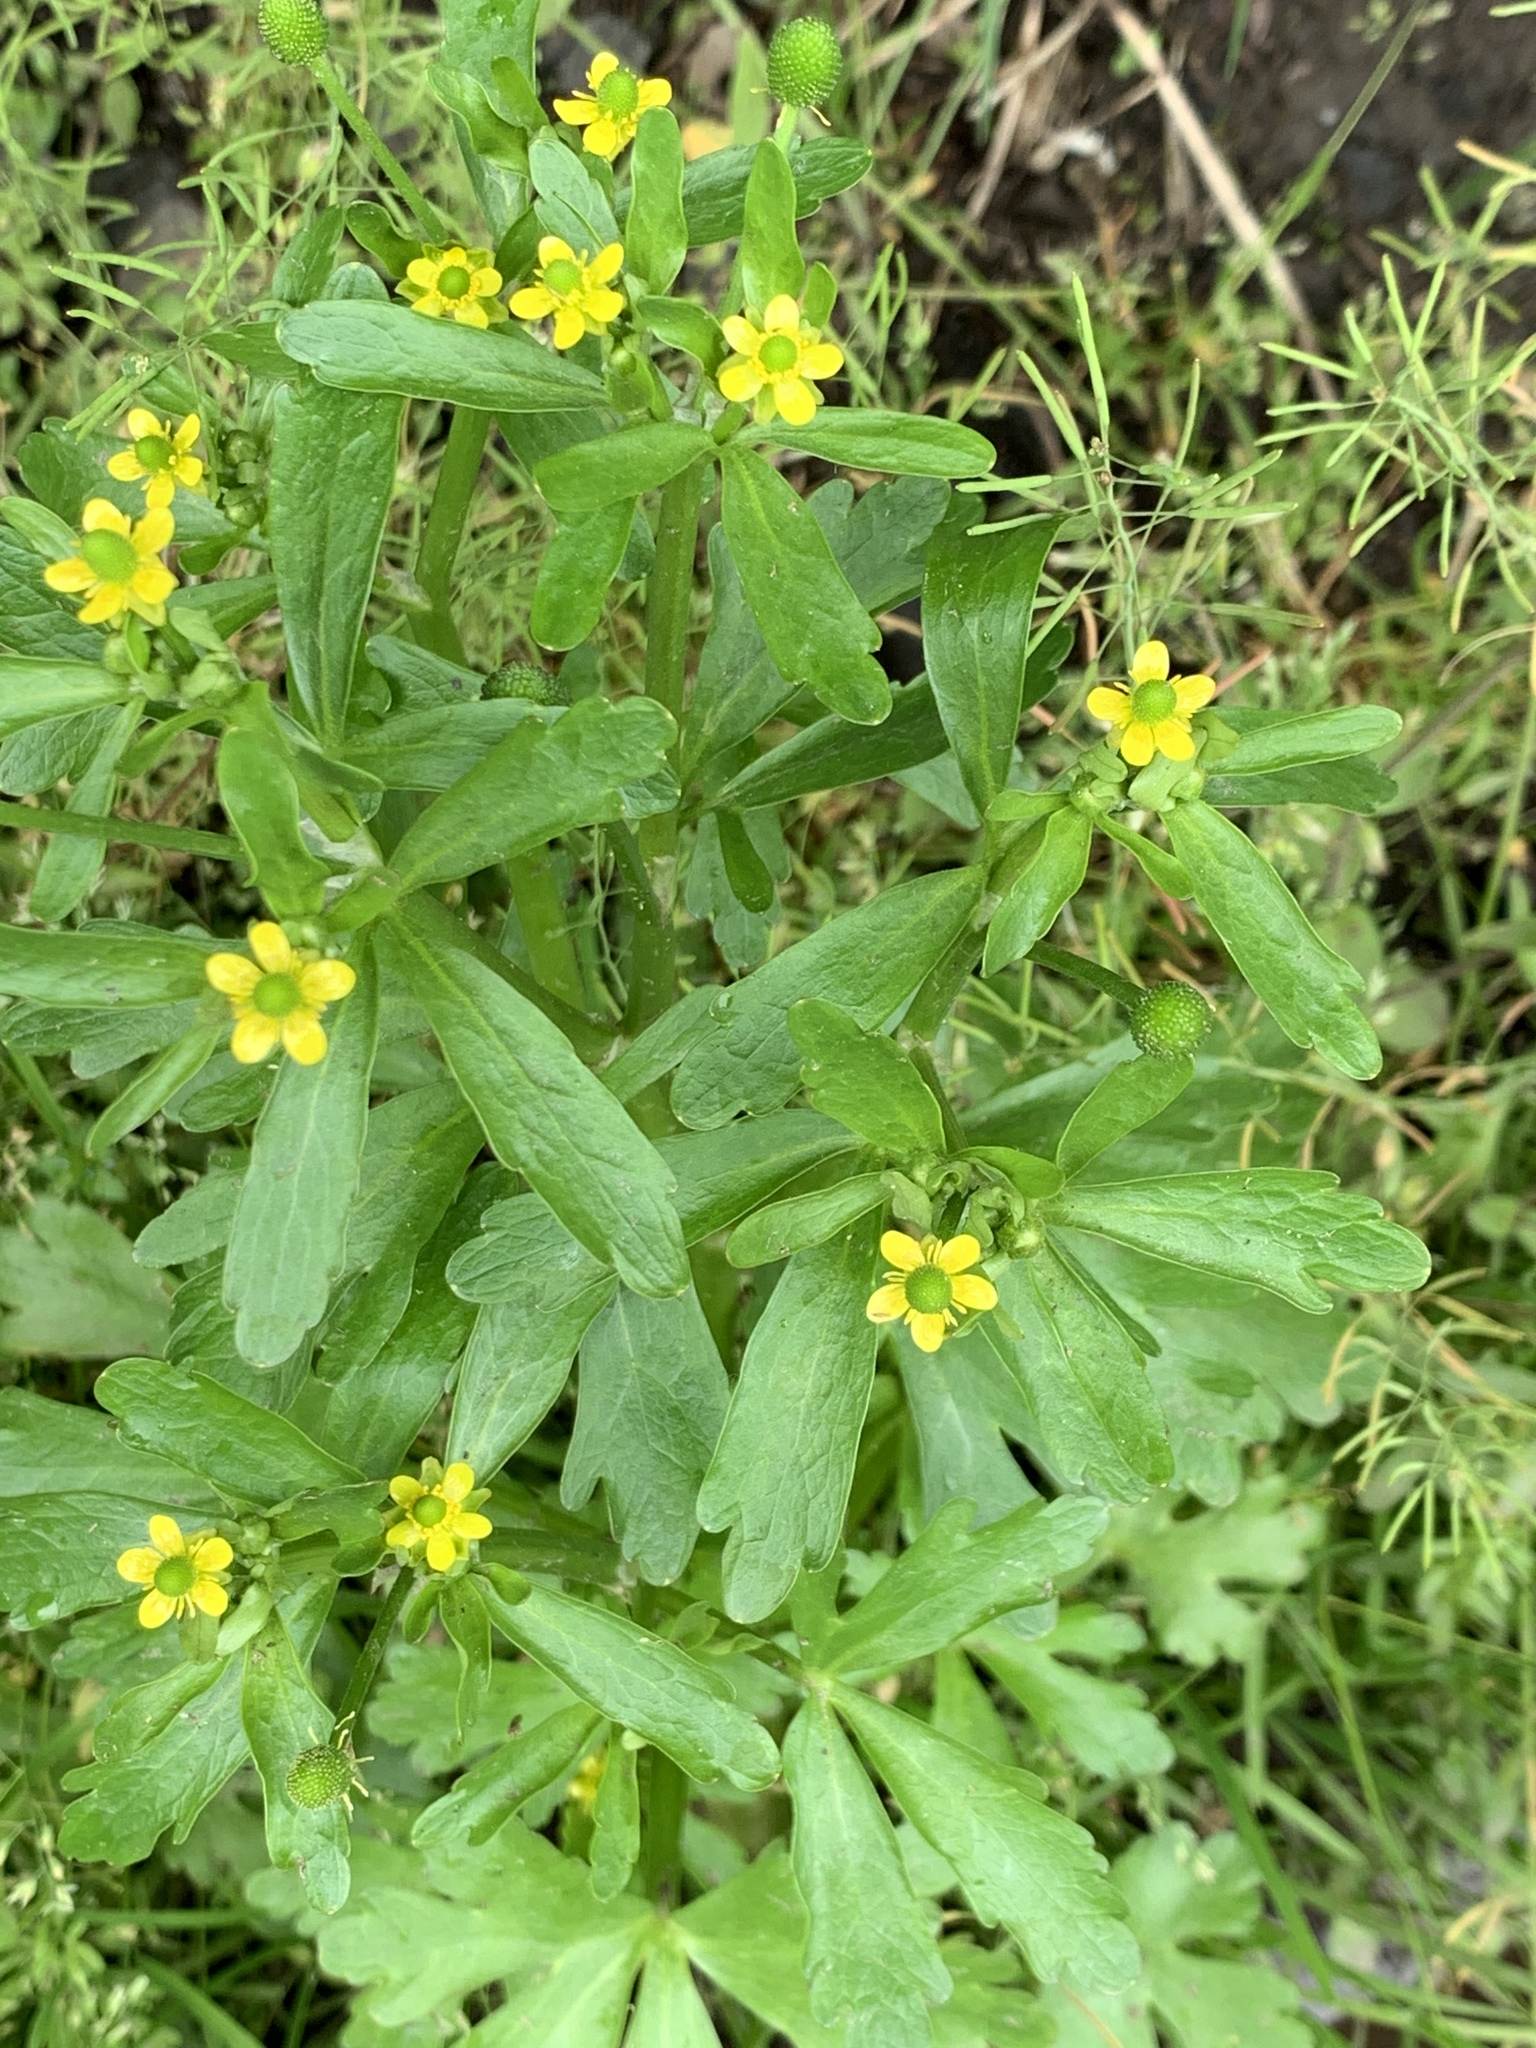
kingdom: Plantae
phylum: Tracheophyta
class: Magnoliopsida
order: Ranunculales
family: Ranunculaceae
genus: Ranunculus
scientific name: Ranunculus sceleratus
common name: Celery-leaved buttercup
